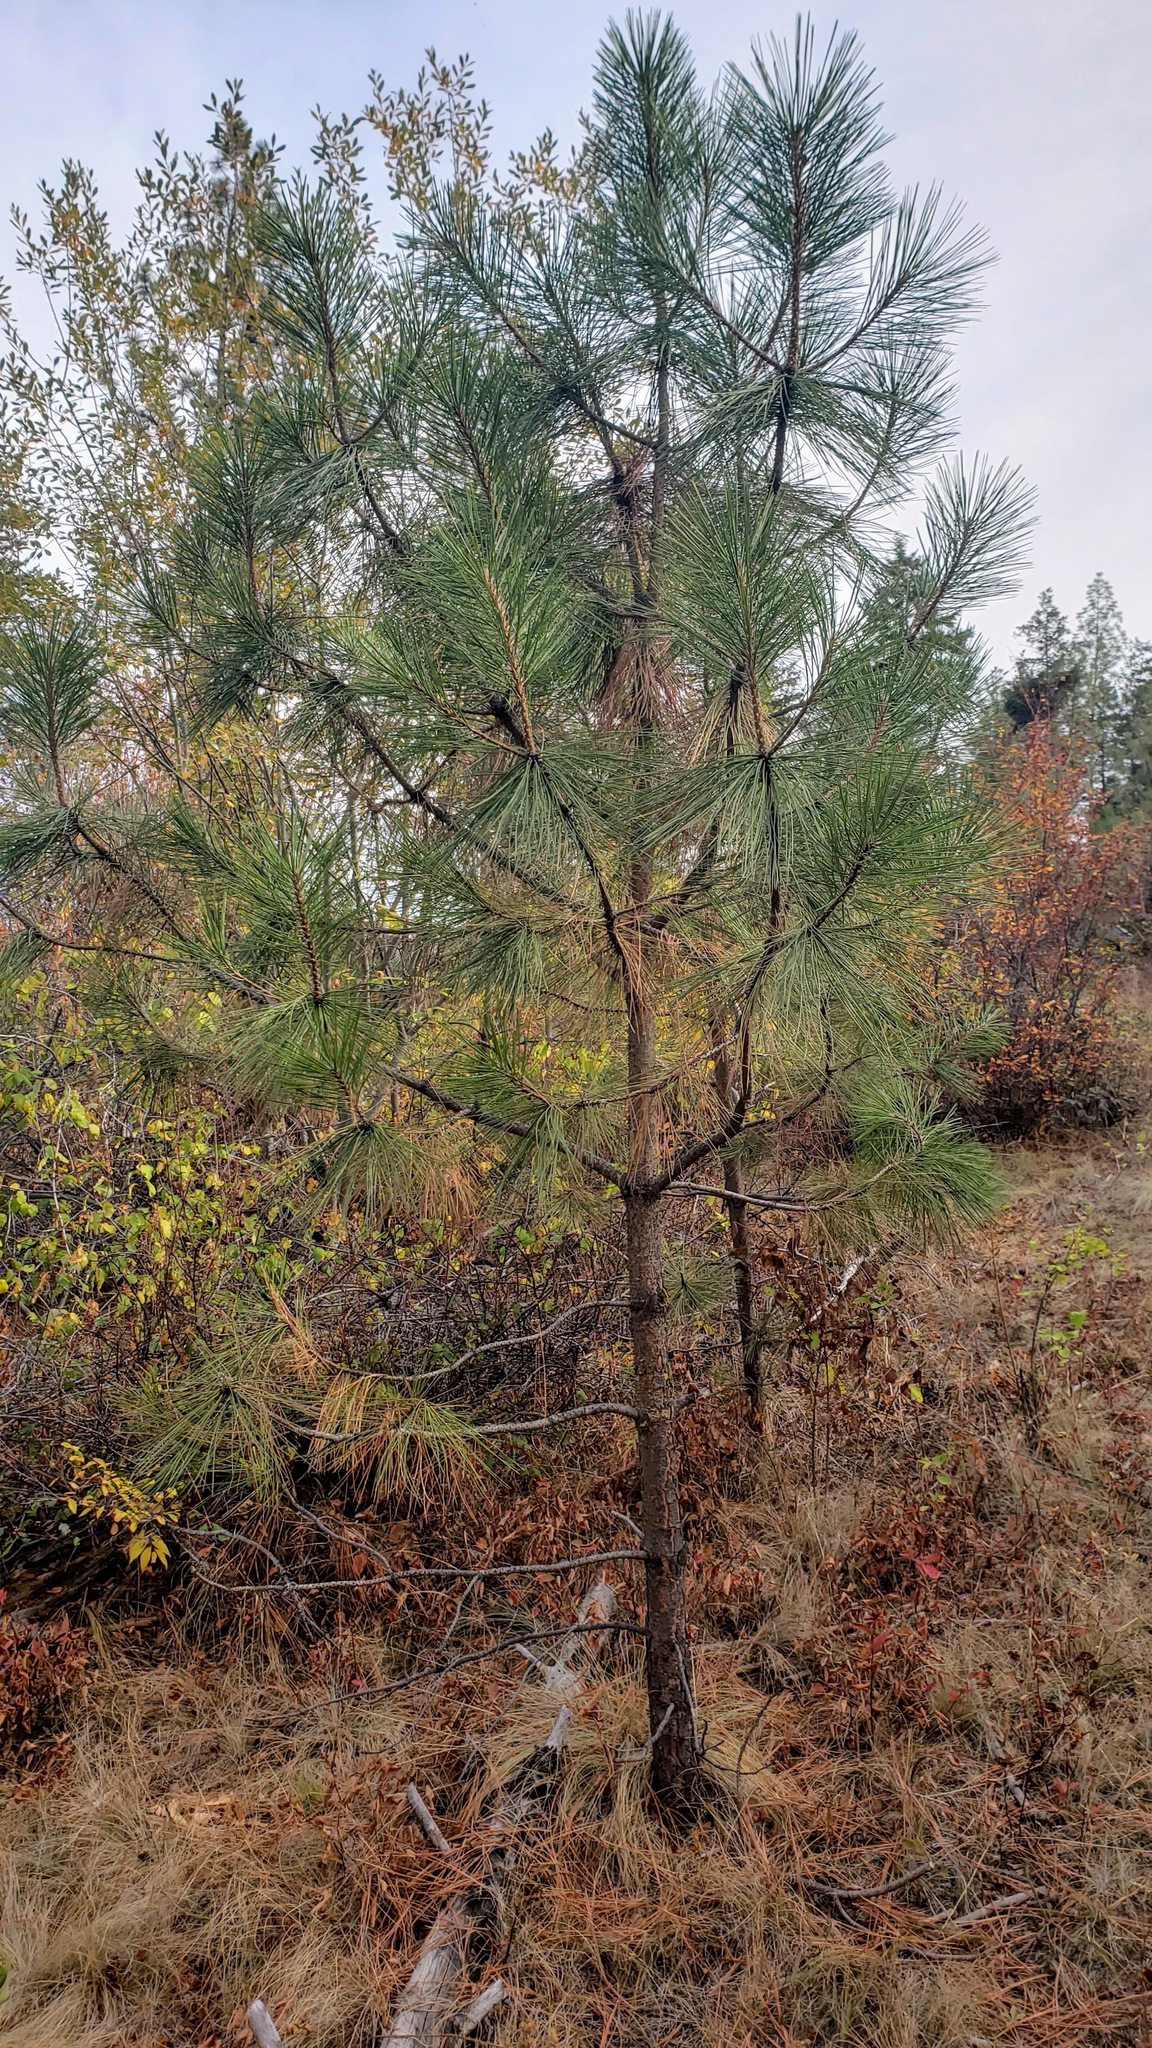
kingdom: Plantae
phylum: Tracheophyta
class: Pinopsida
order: Pinales
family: Pinaceae
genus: Pinus
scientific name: Pinus ponderosa
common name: Western yellow-pine
